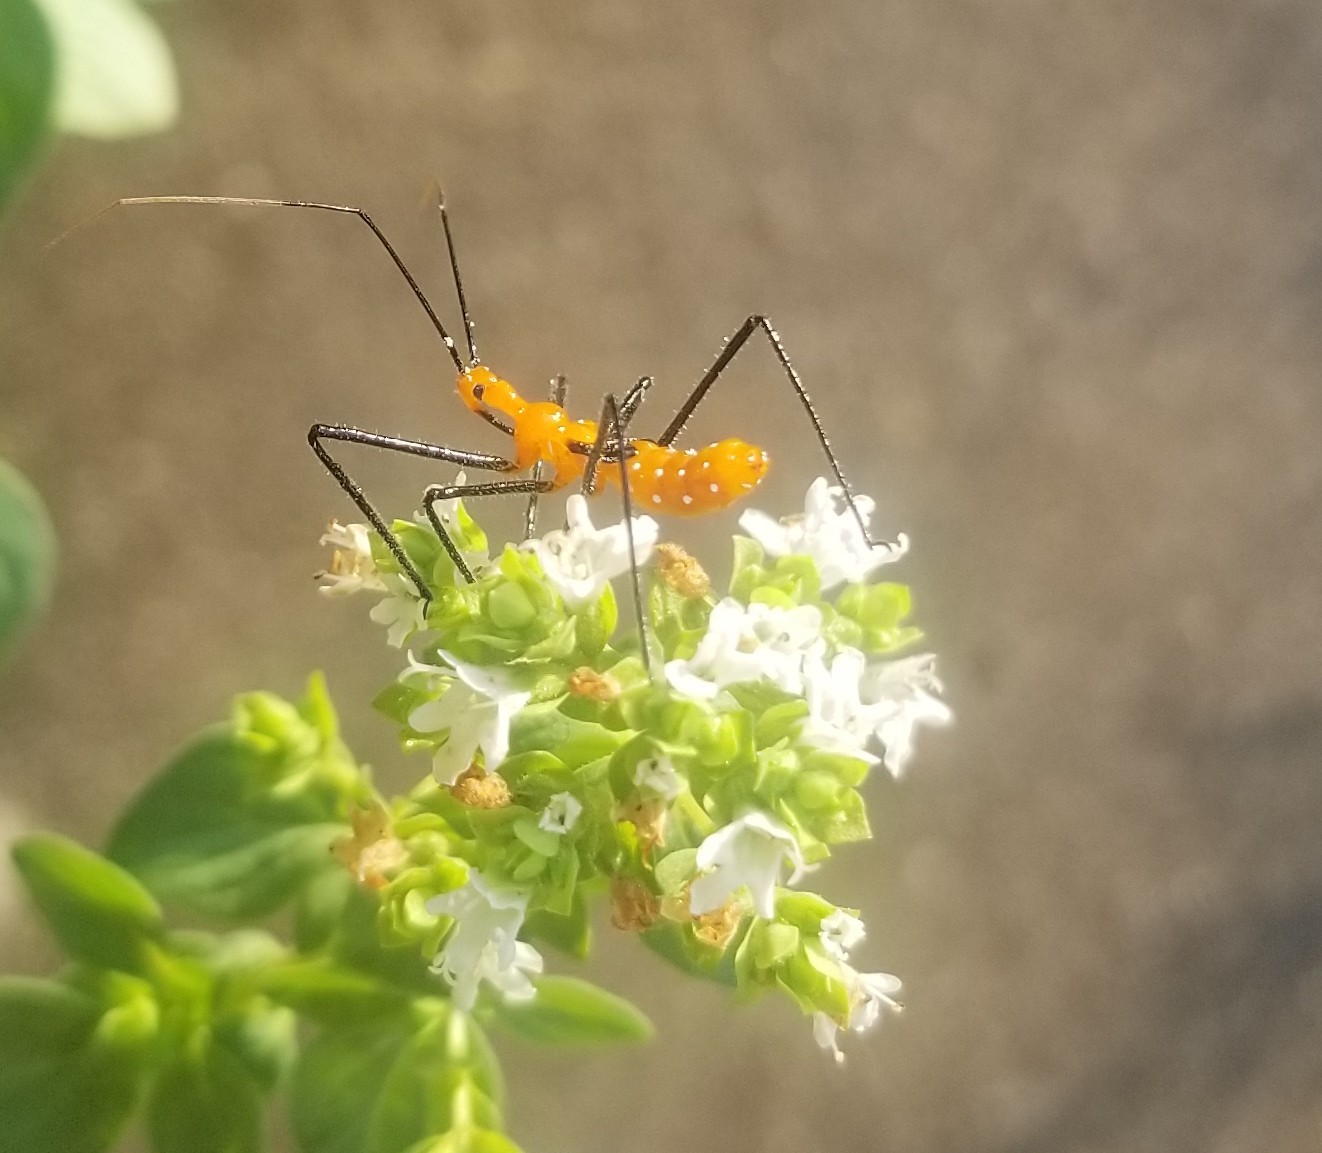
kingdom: Animalia
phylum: Arthropoda
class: Insecta
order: Hemiptera
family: Reduviidae
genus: Zelus
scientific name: Zelus longipes
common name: Milkweed assassin bug
